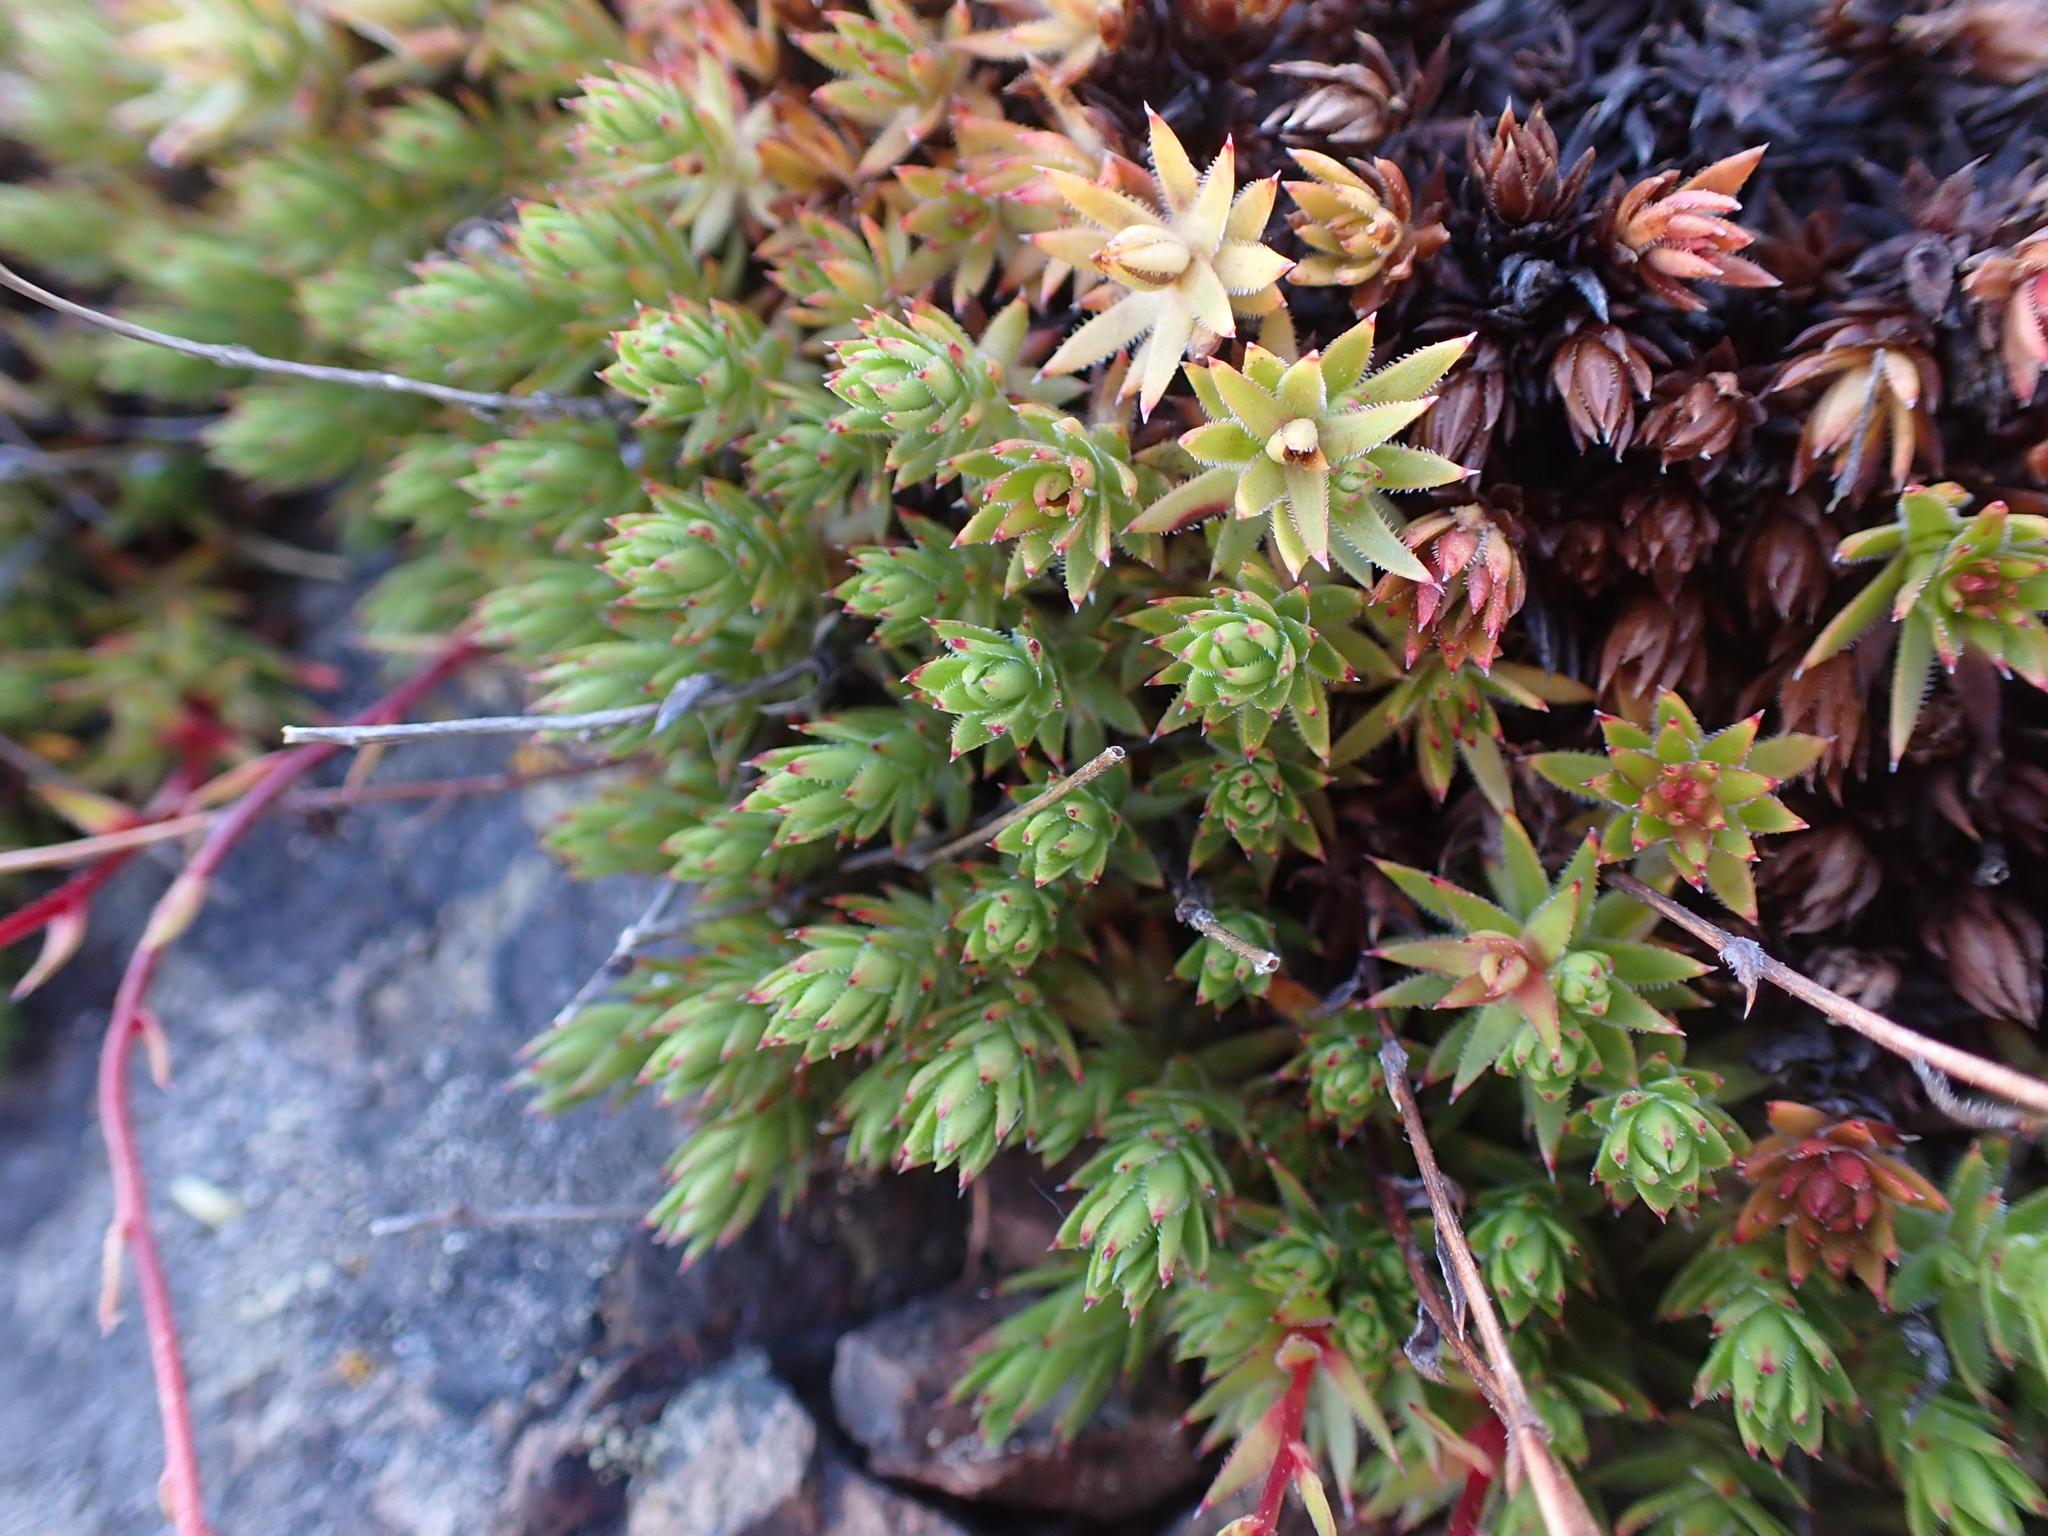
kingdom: Plantae
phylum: Tracheophyta
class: Magnoliopsida
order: Saxifragales
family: Saxifragaceae
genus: Saxifraga
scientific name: Saxifraga bronchialis
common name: Matted saxifrage
